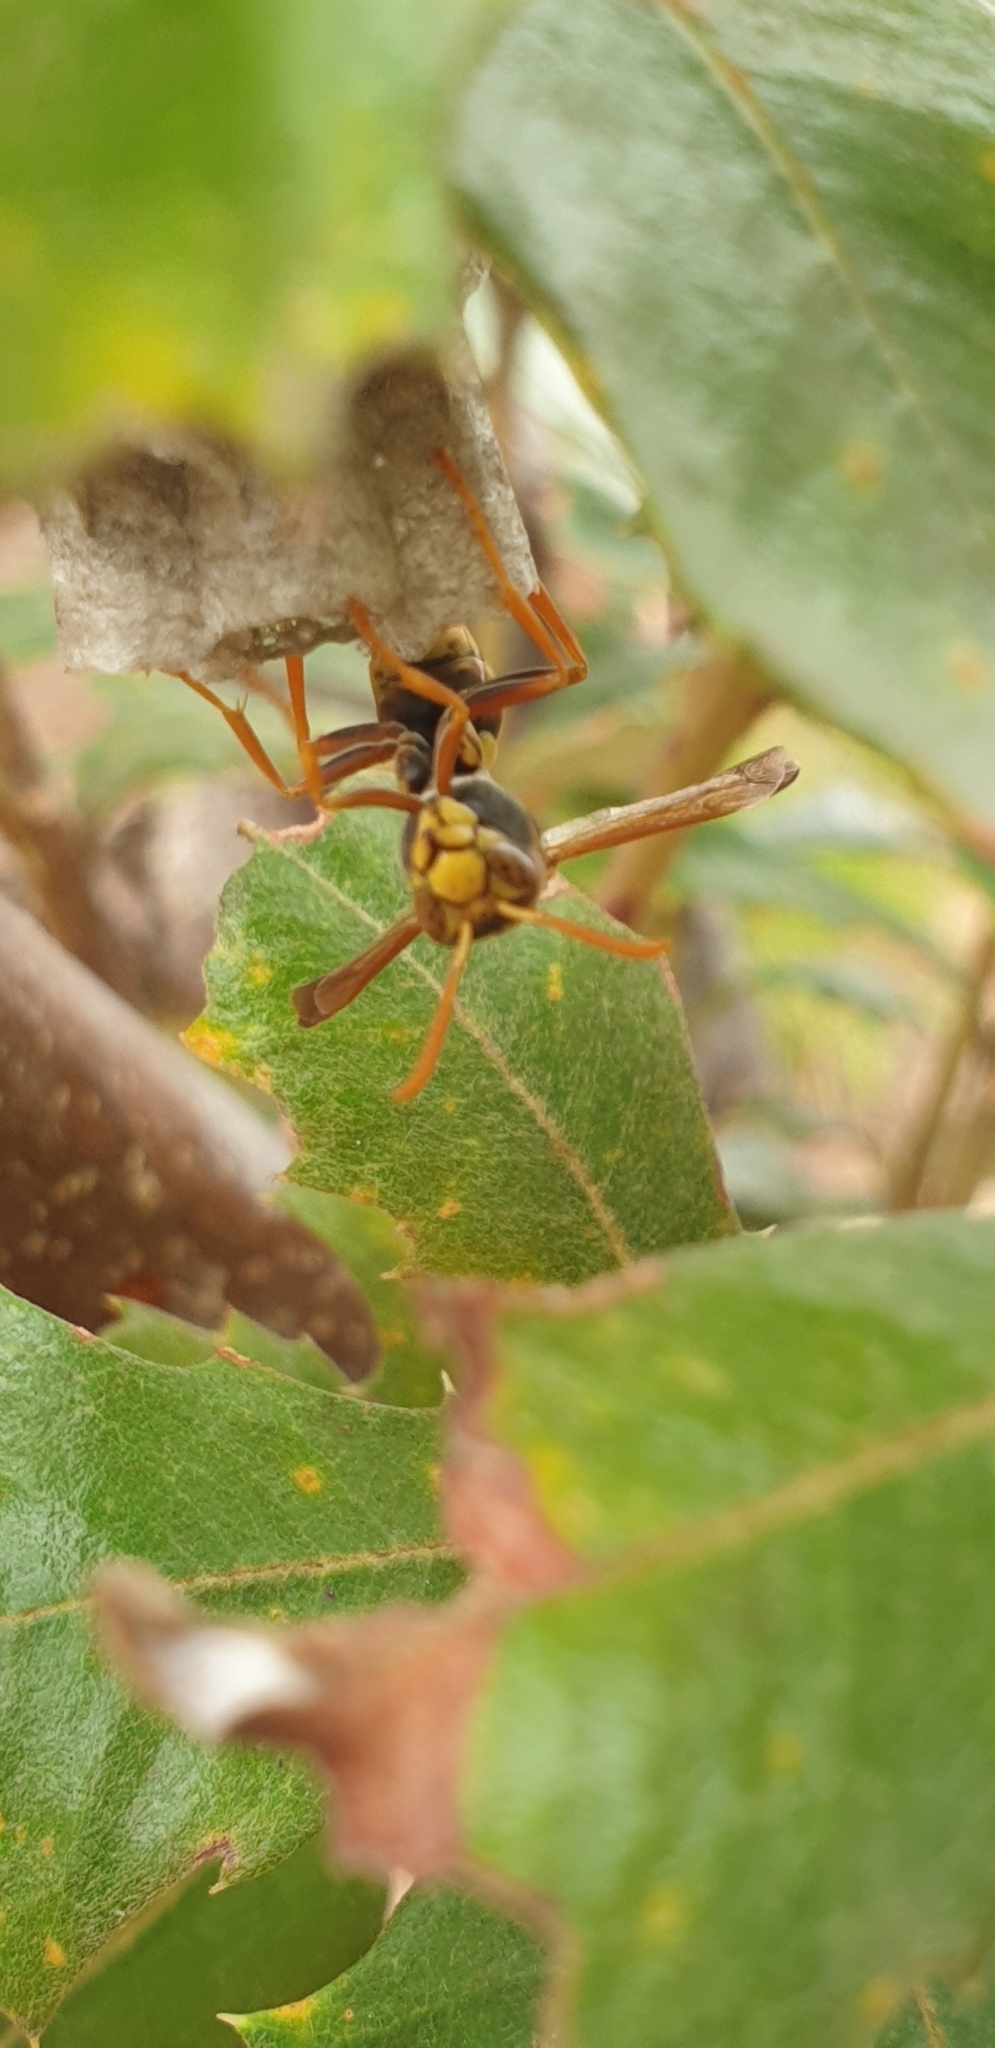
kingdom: Animalia
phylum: Arthropoda
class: Insecta
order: Hymenoptera
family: Eumenidae
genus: Polistes
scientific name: Polistes humilis
